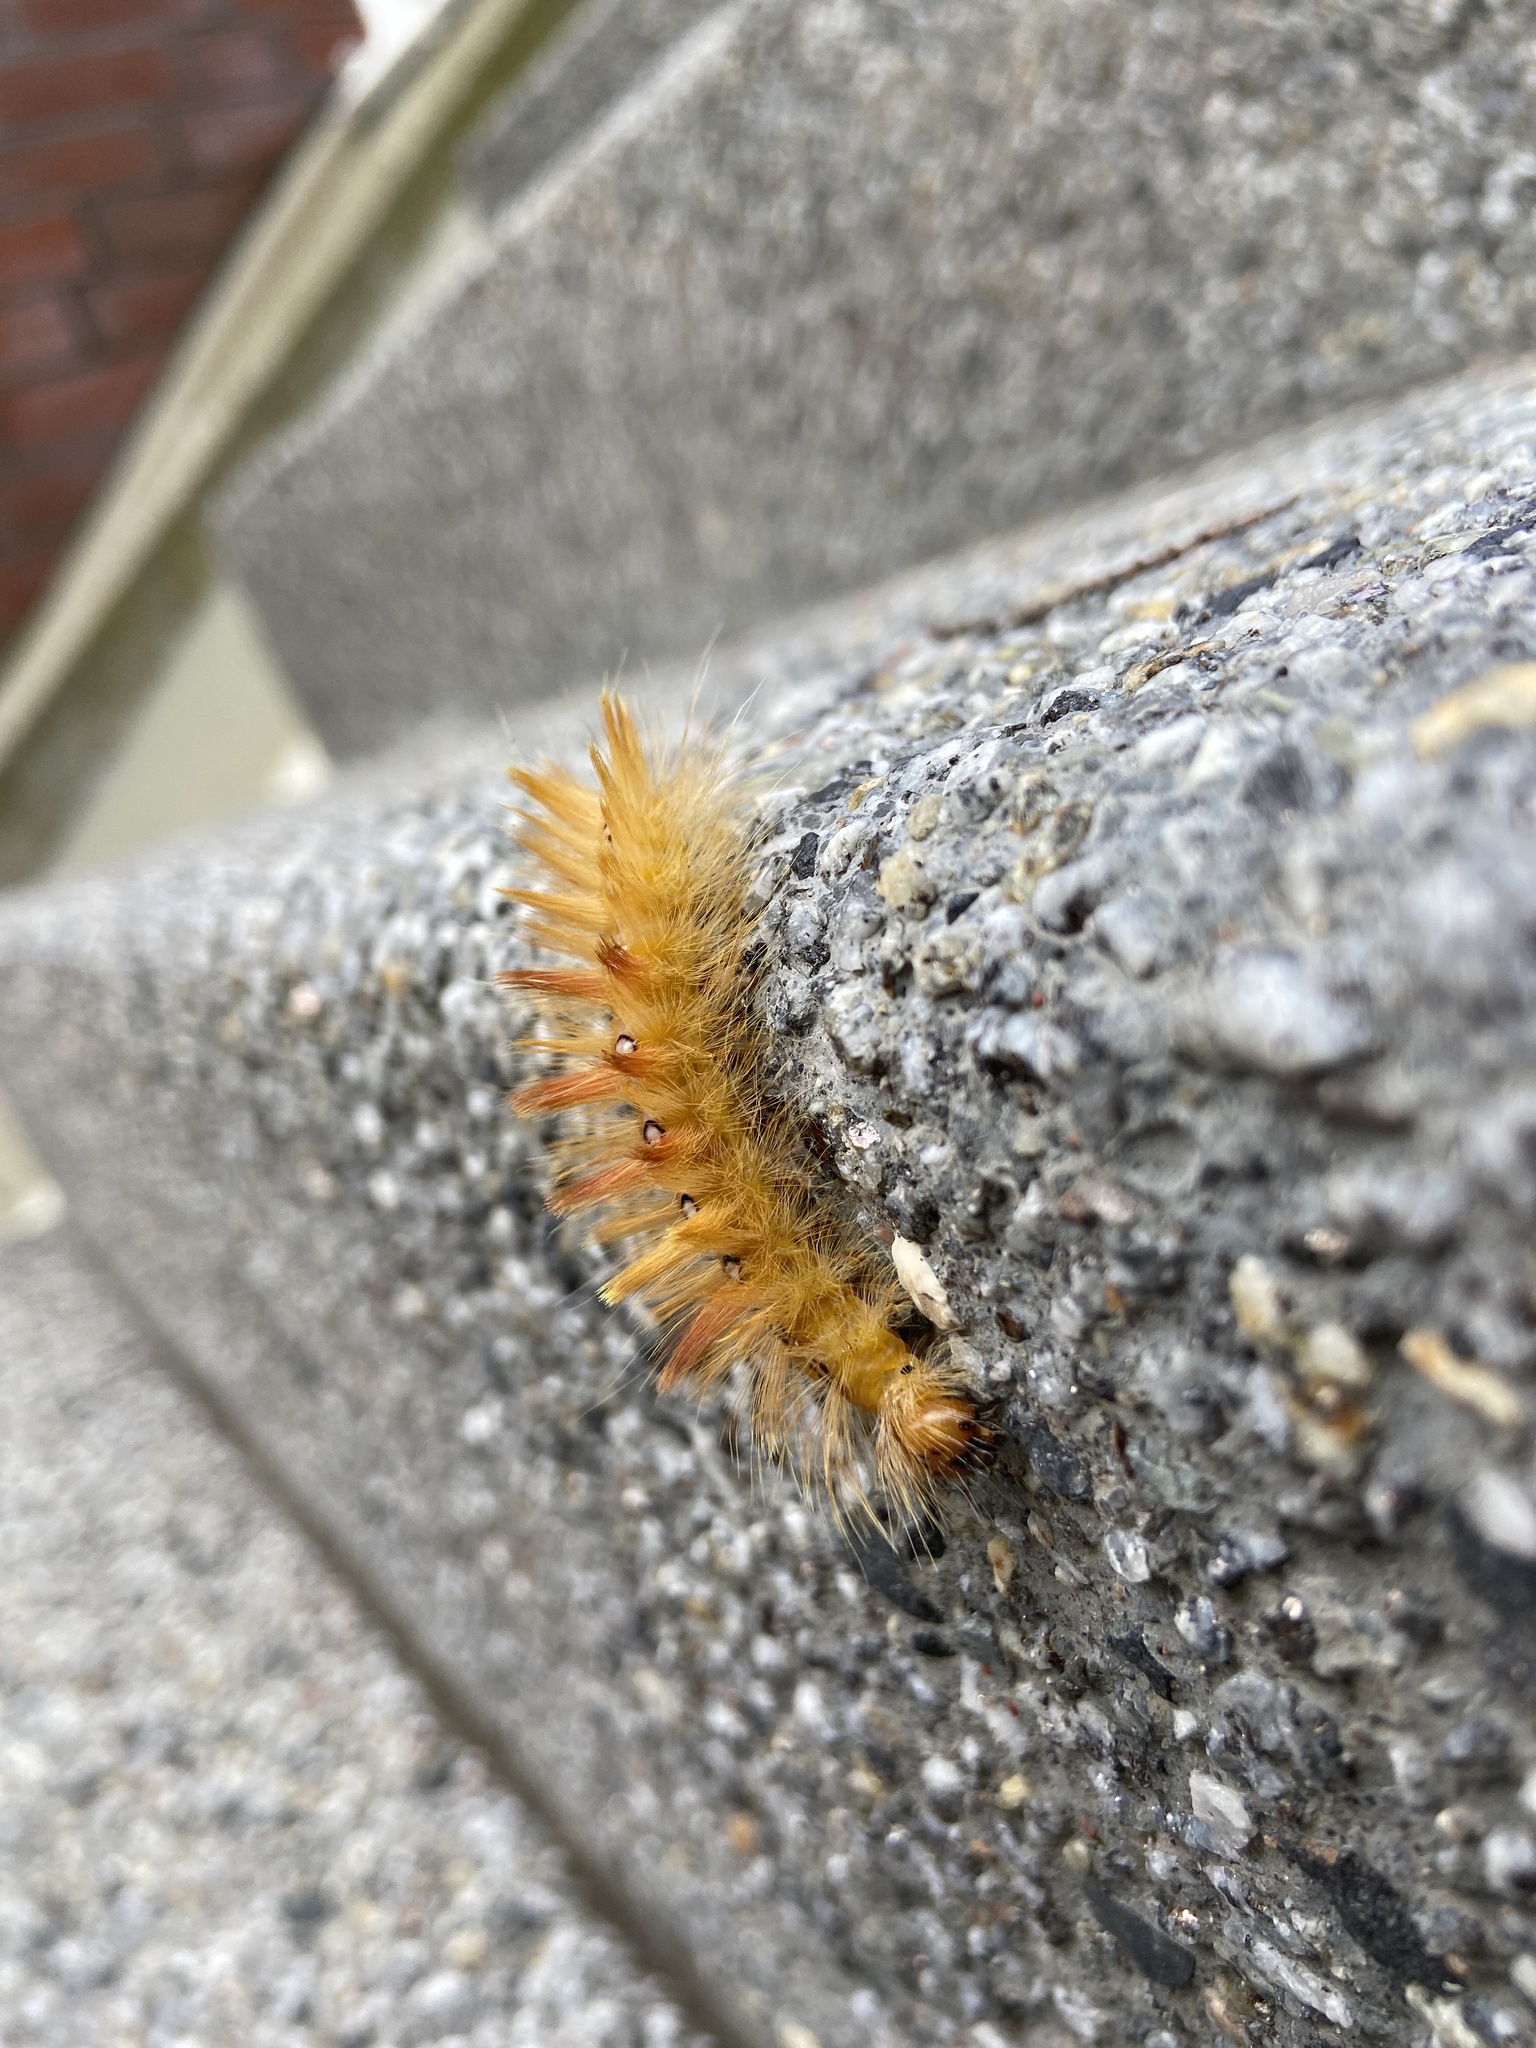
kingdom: Animalia
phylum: Arthropoda
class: Insecta
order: Lepidoptera
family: Noctuidae
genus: Acronicta
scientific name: Acronicta aceris
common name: Sycamore
